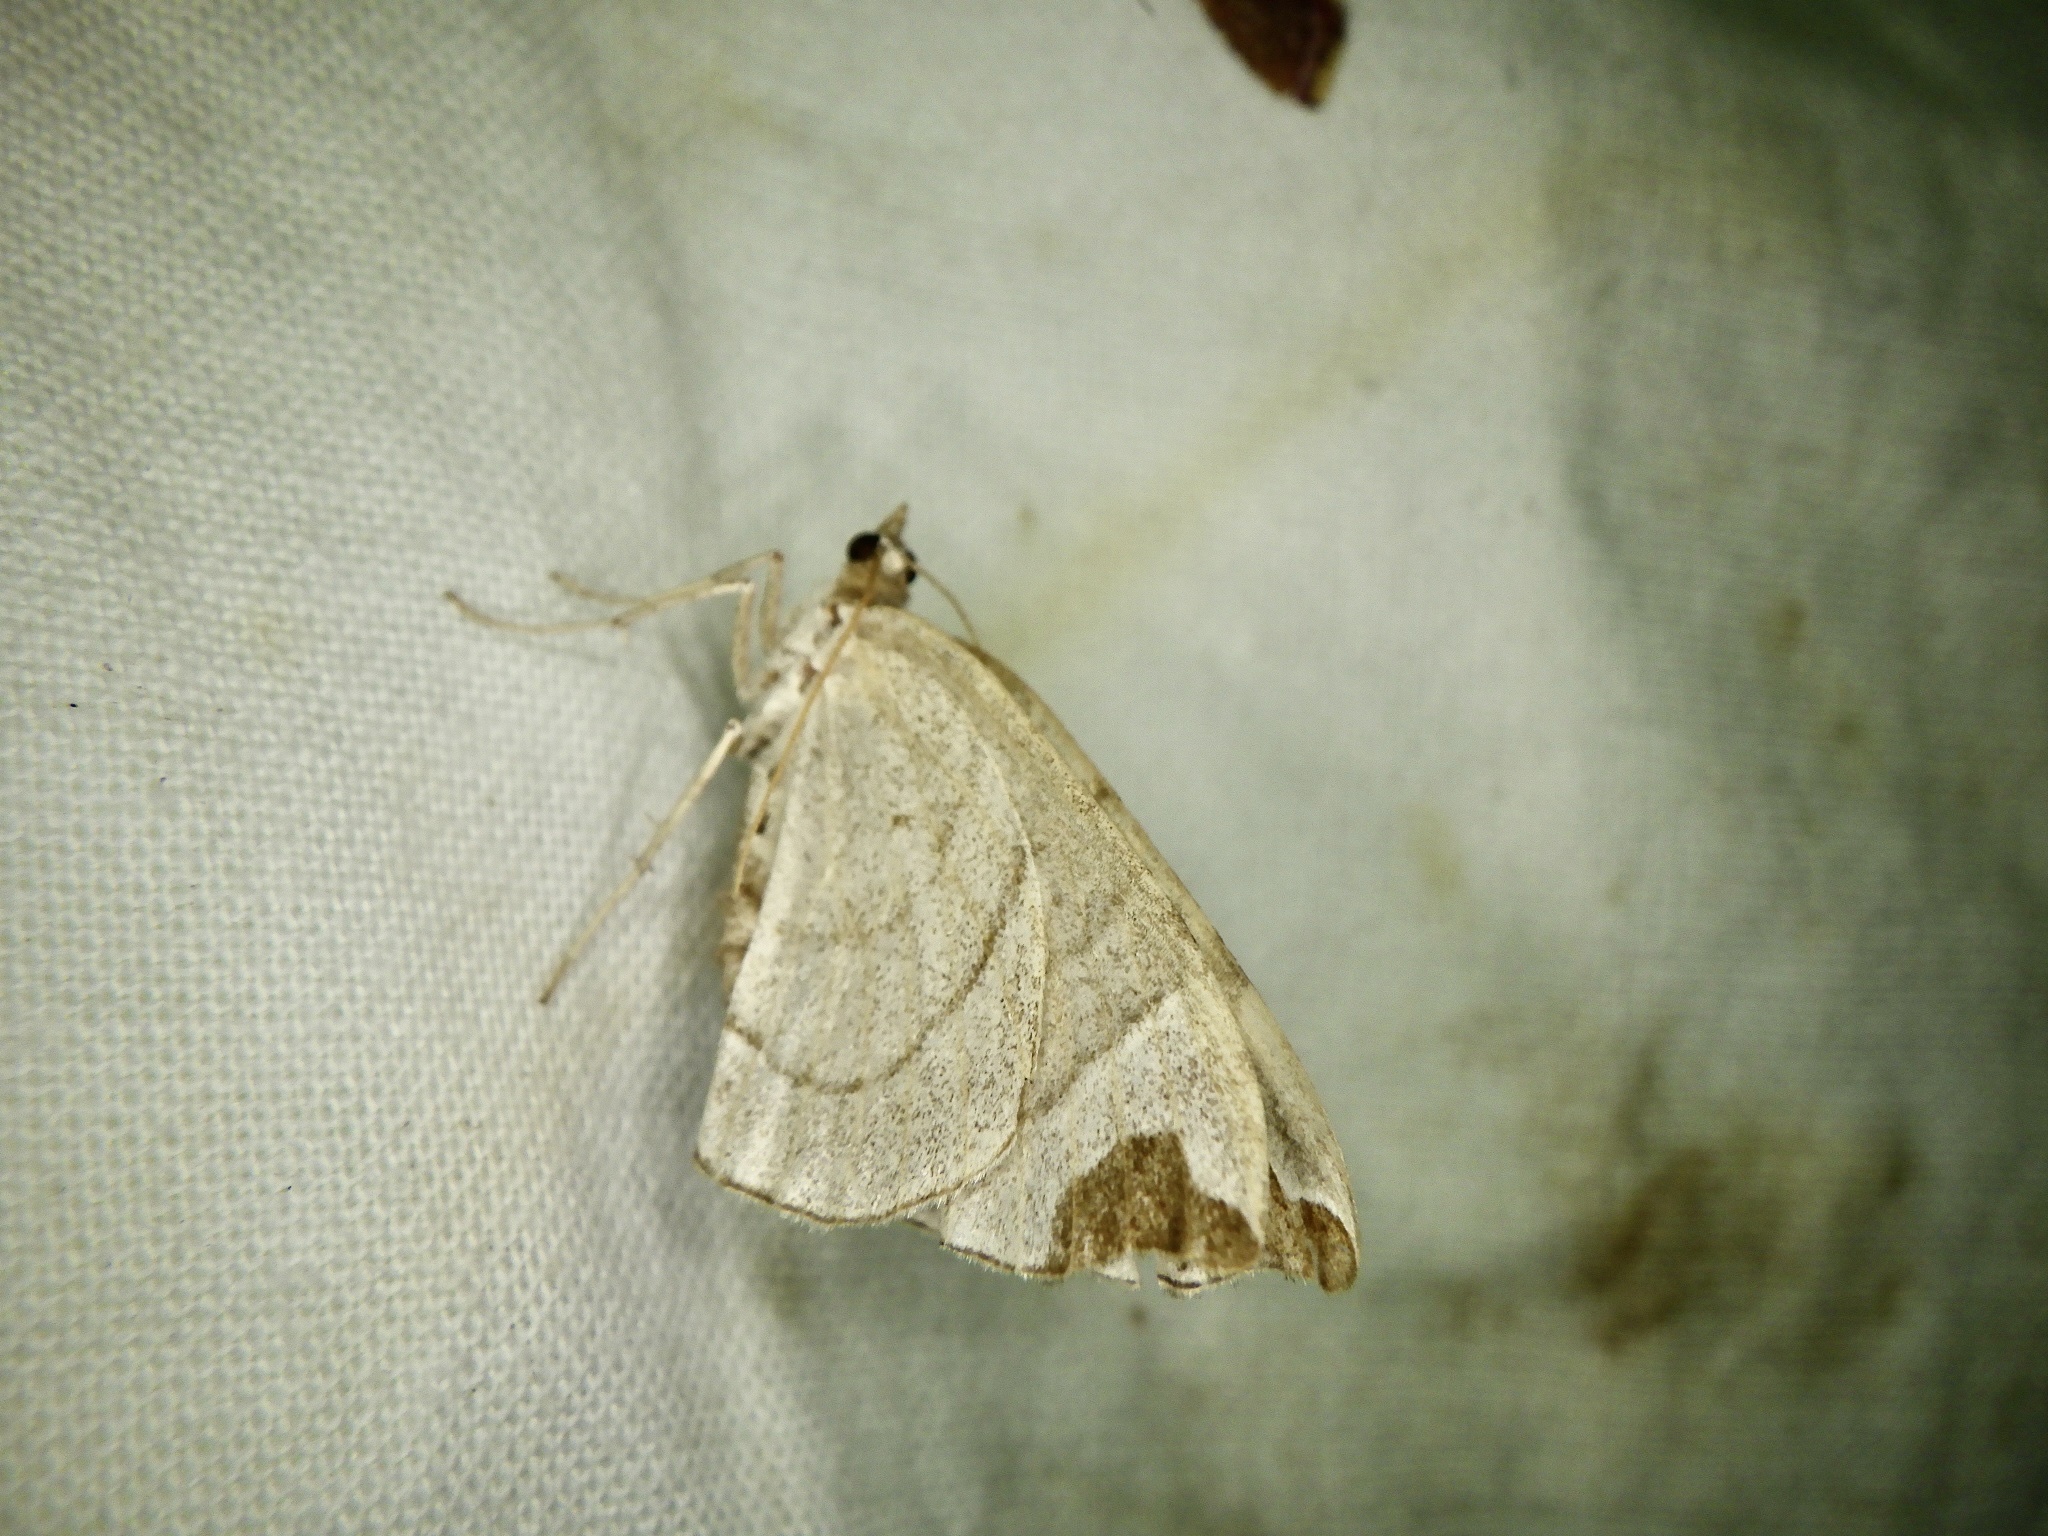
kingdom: Animalia
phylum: Arthropoda
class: Insecta
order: Lepidoptera
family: Geometridae
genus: Eulithis
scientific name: Eulithis ledereri
